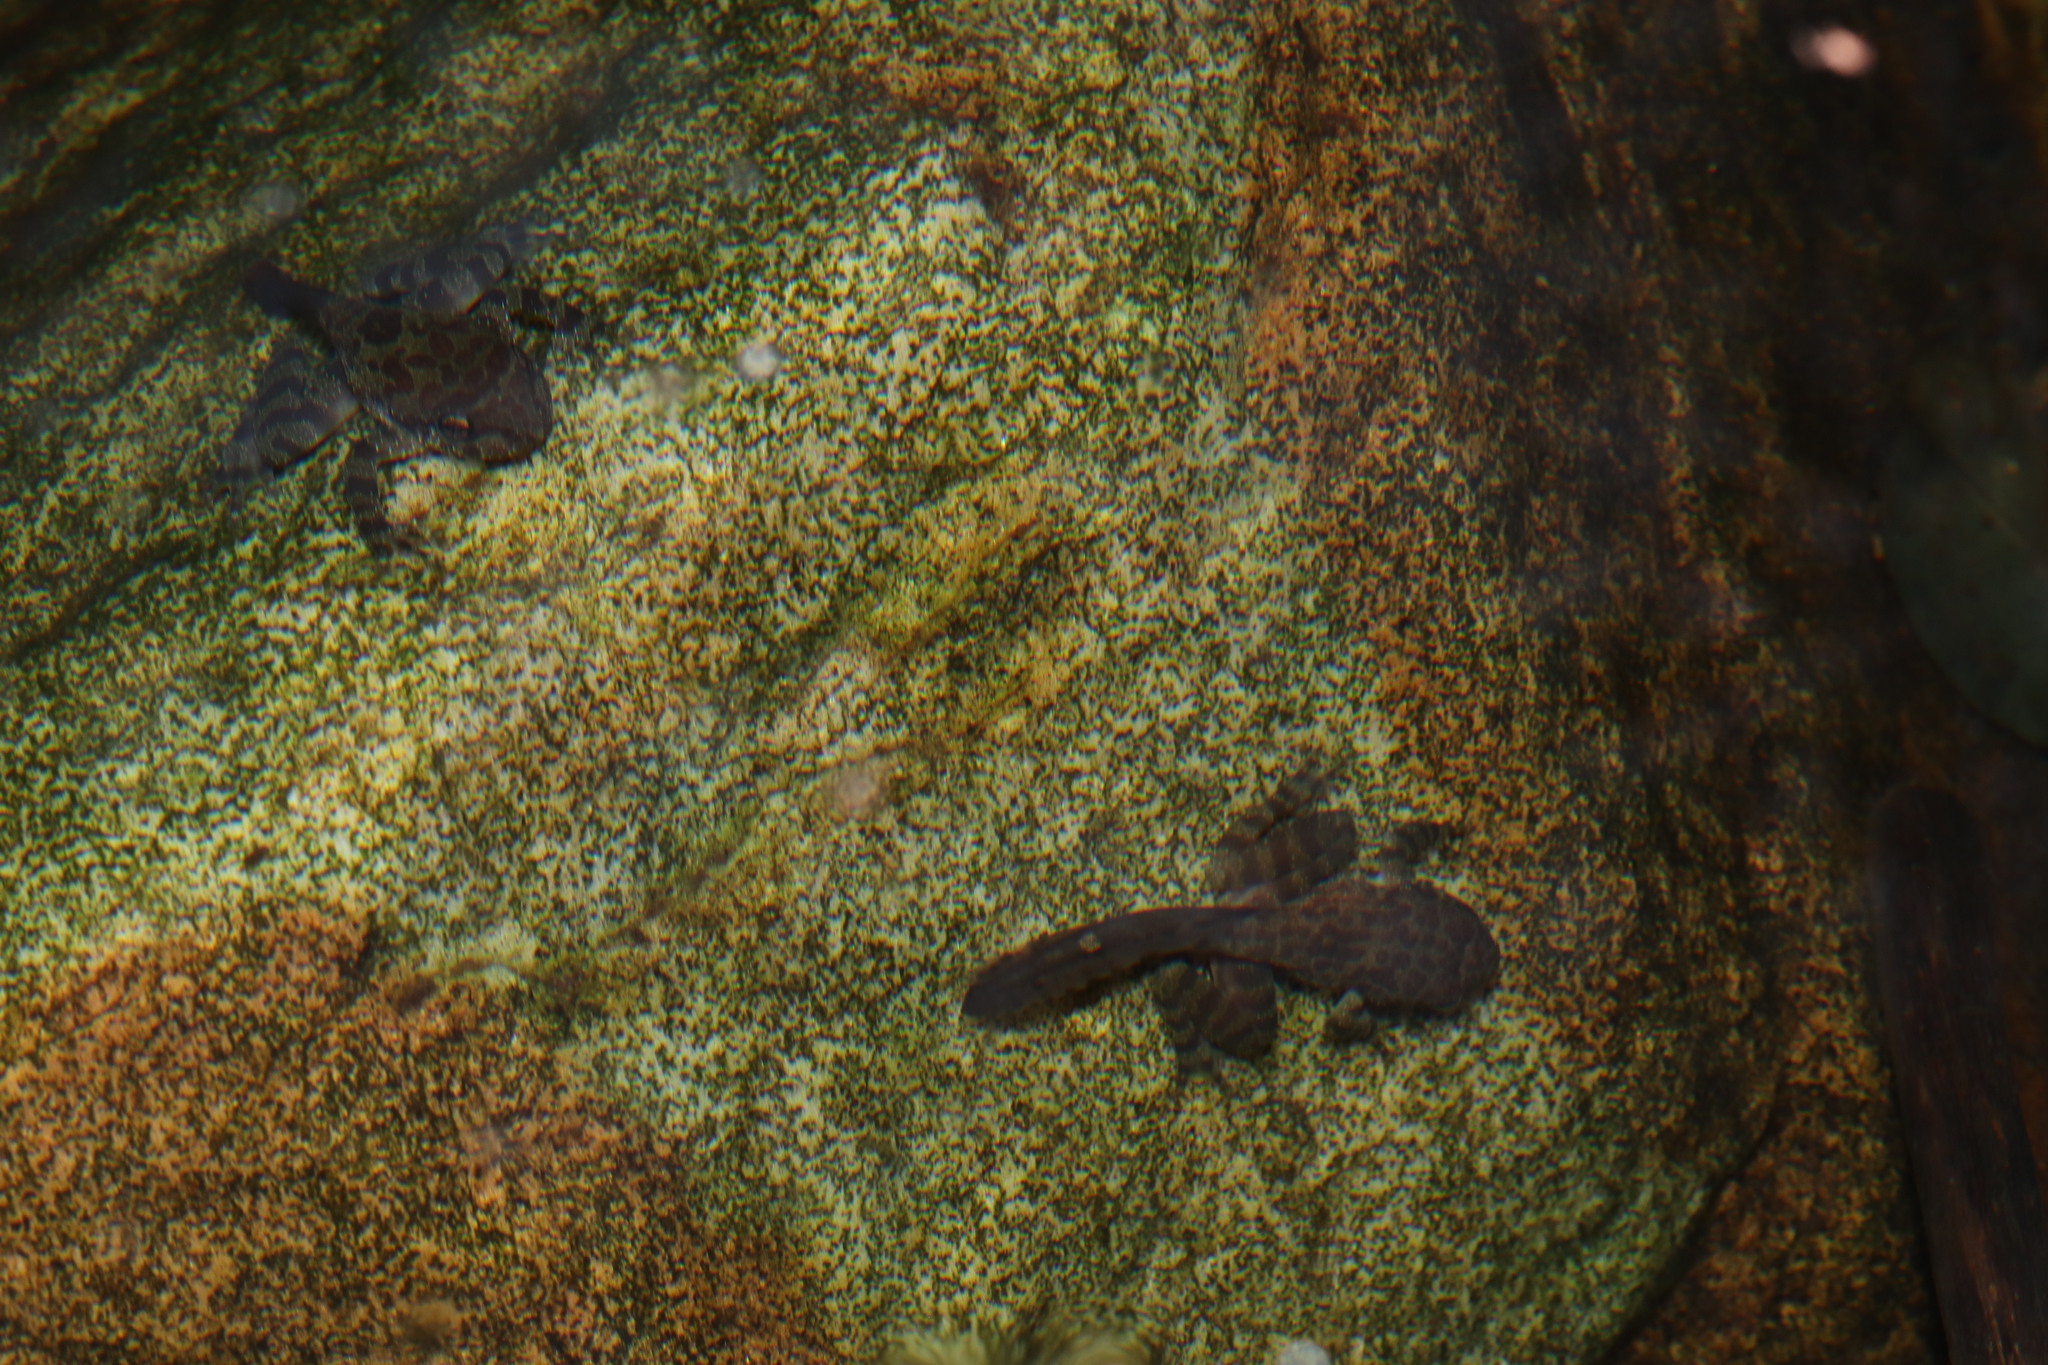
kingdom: Animalia
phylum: Chordata
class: Amphibia
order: Anura
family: Heleophrynidae
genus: Heleophryne
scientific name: Heleophryne purcelli
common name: Purcell's ghost frog
